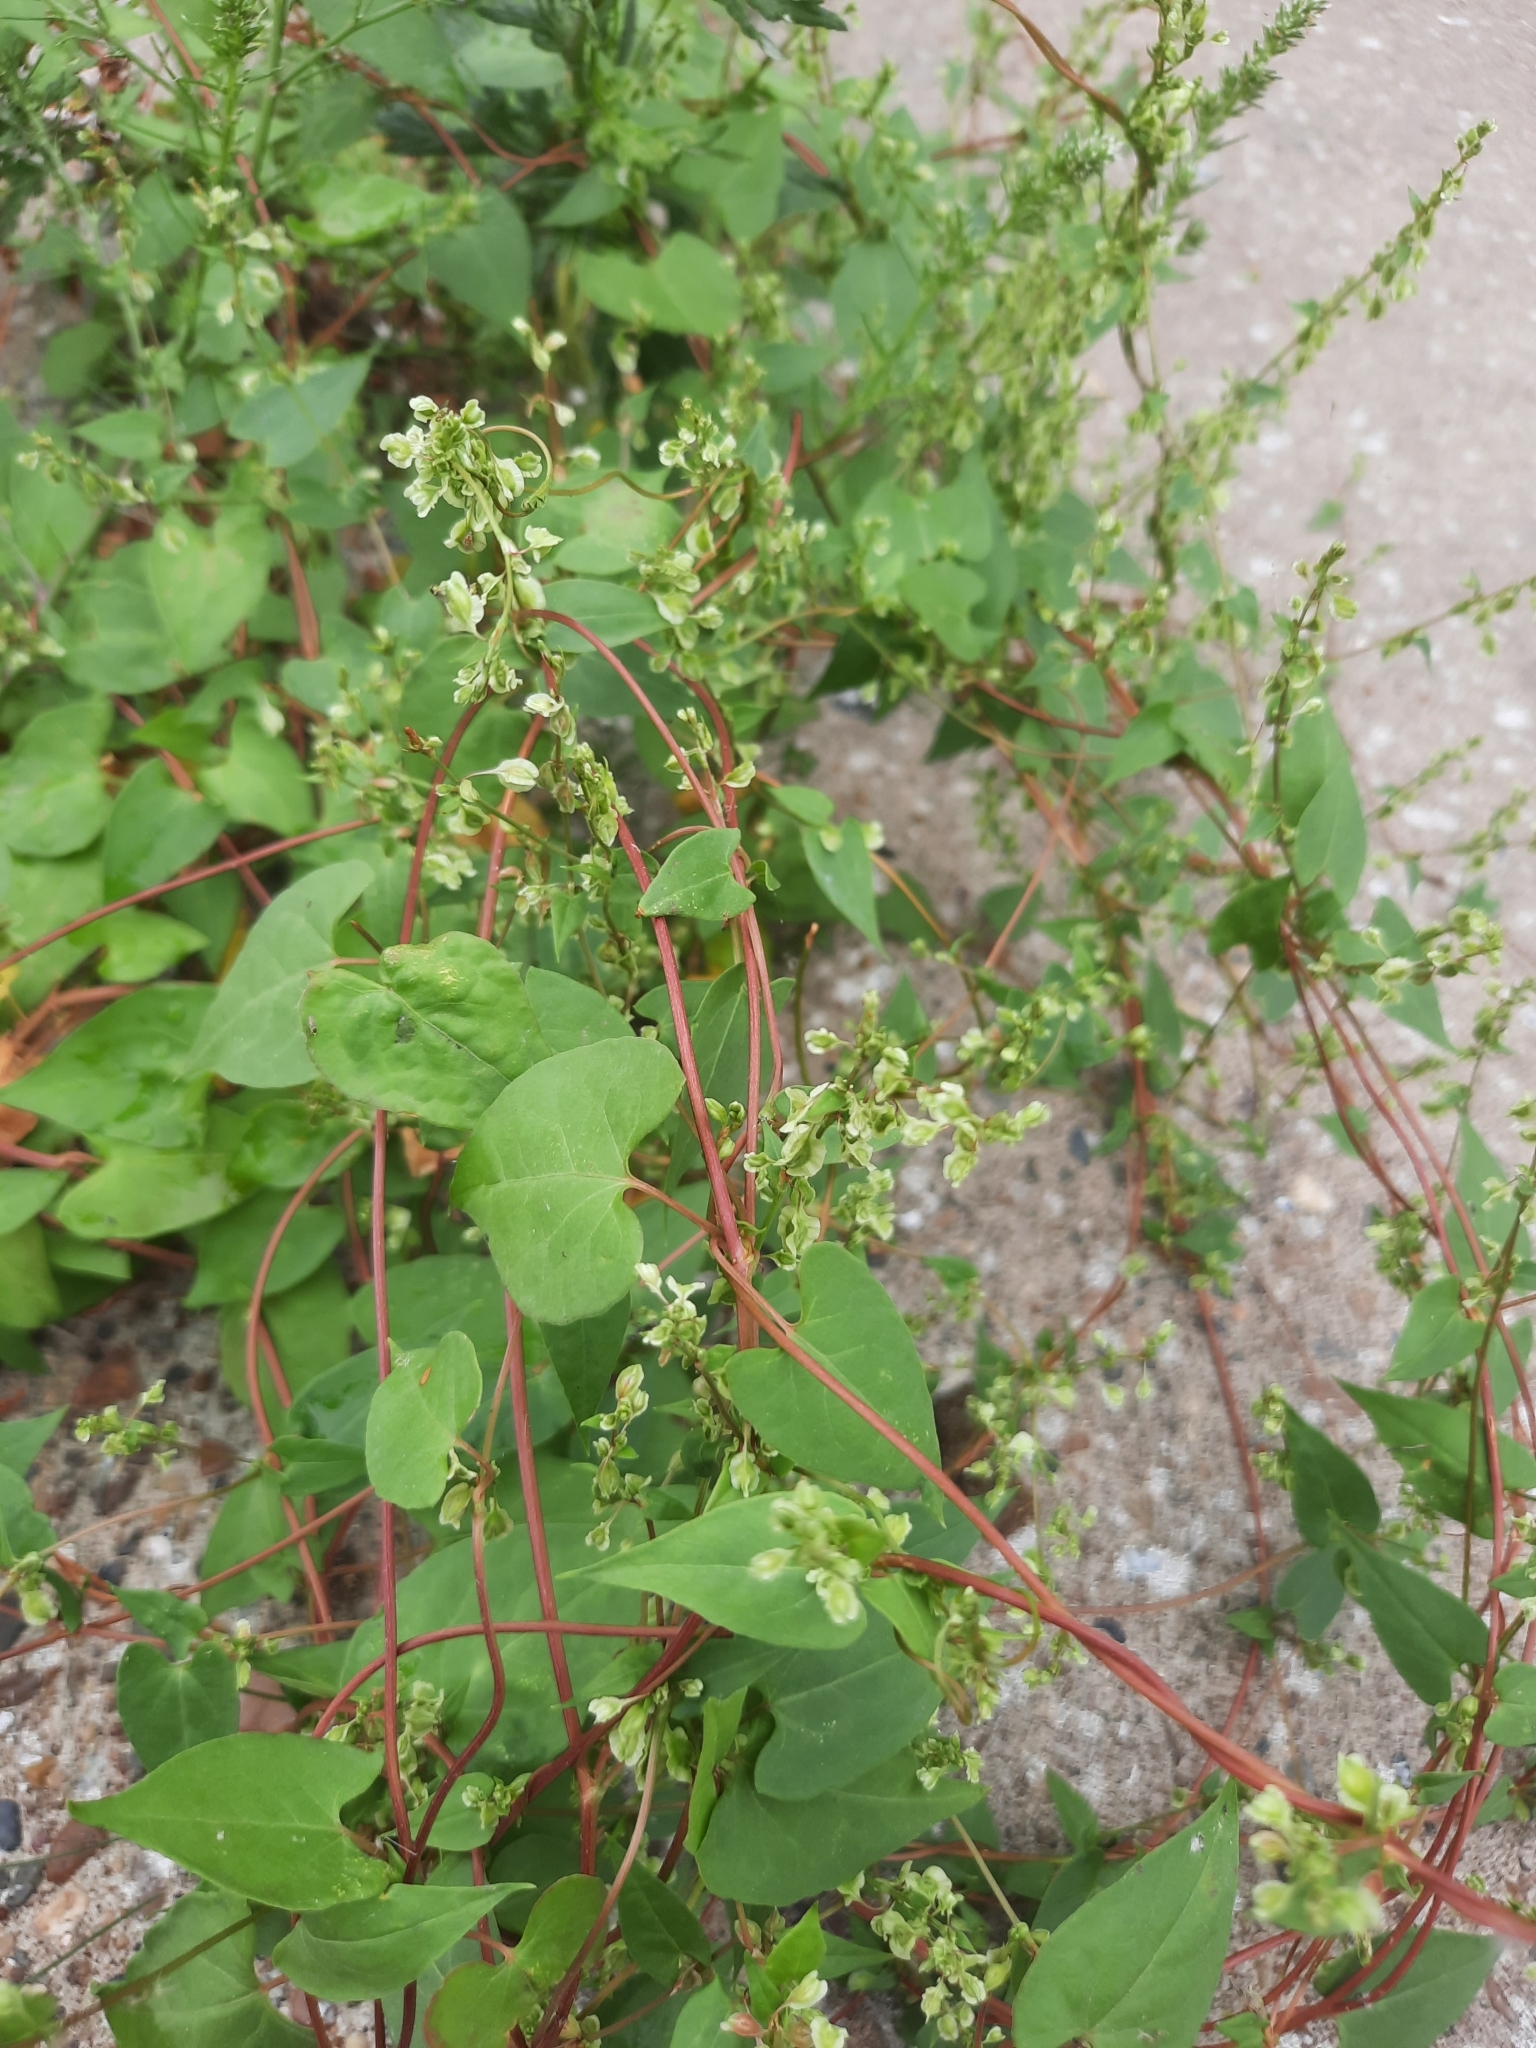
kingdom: Plantae
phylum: Tracheophyta
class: Magnoliopsida
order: Caryophyllales
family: Polygonaceae
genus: Fallopia
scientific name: Fallopia dumetorum
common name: Copse-bindweed
